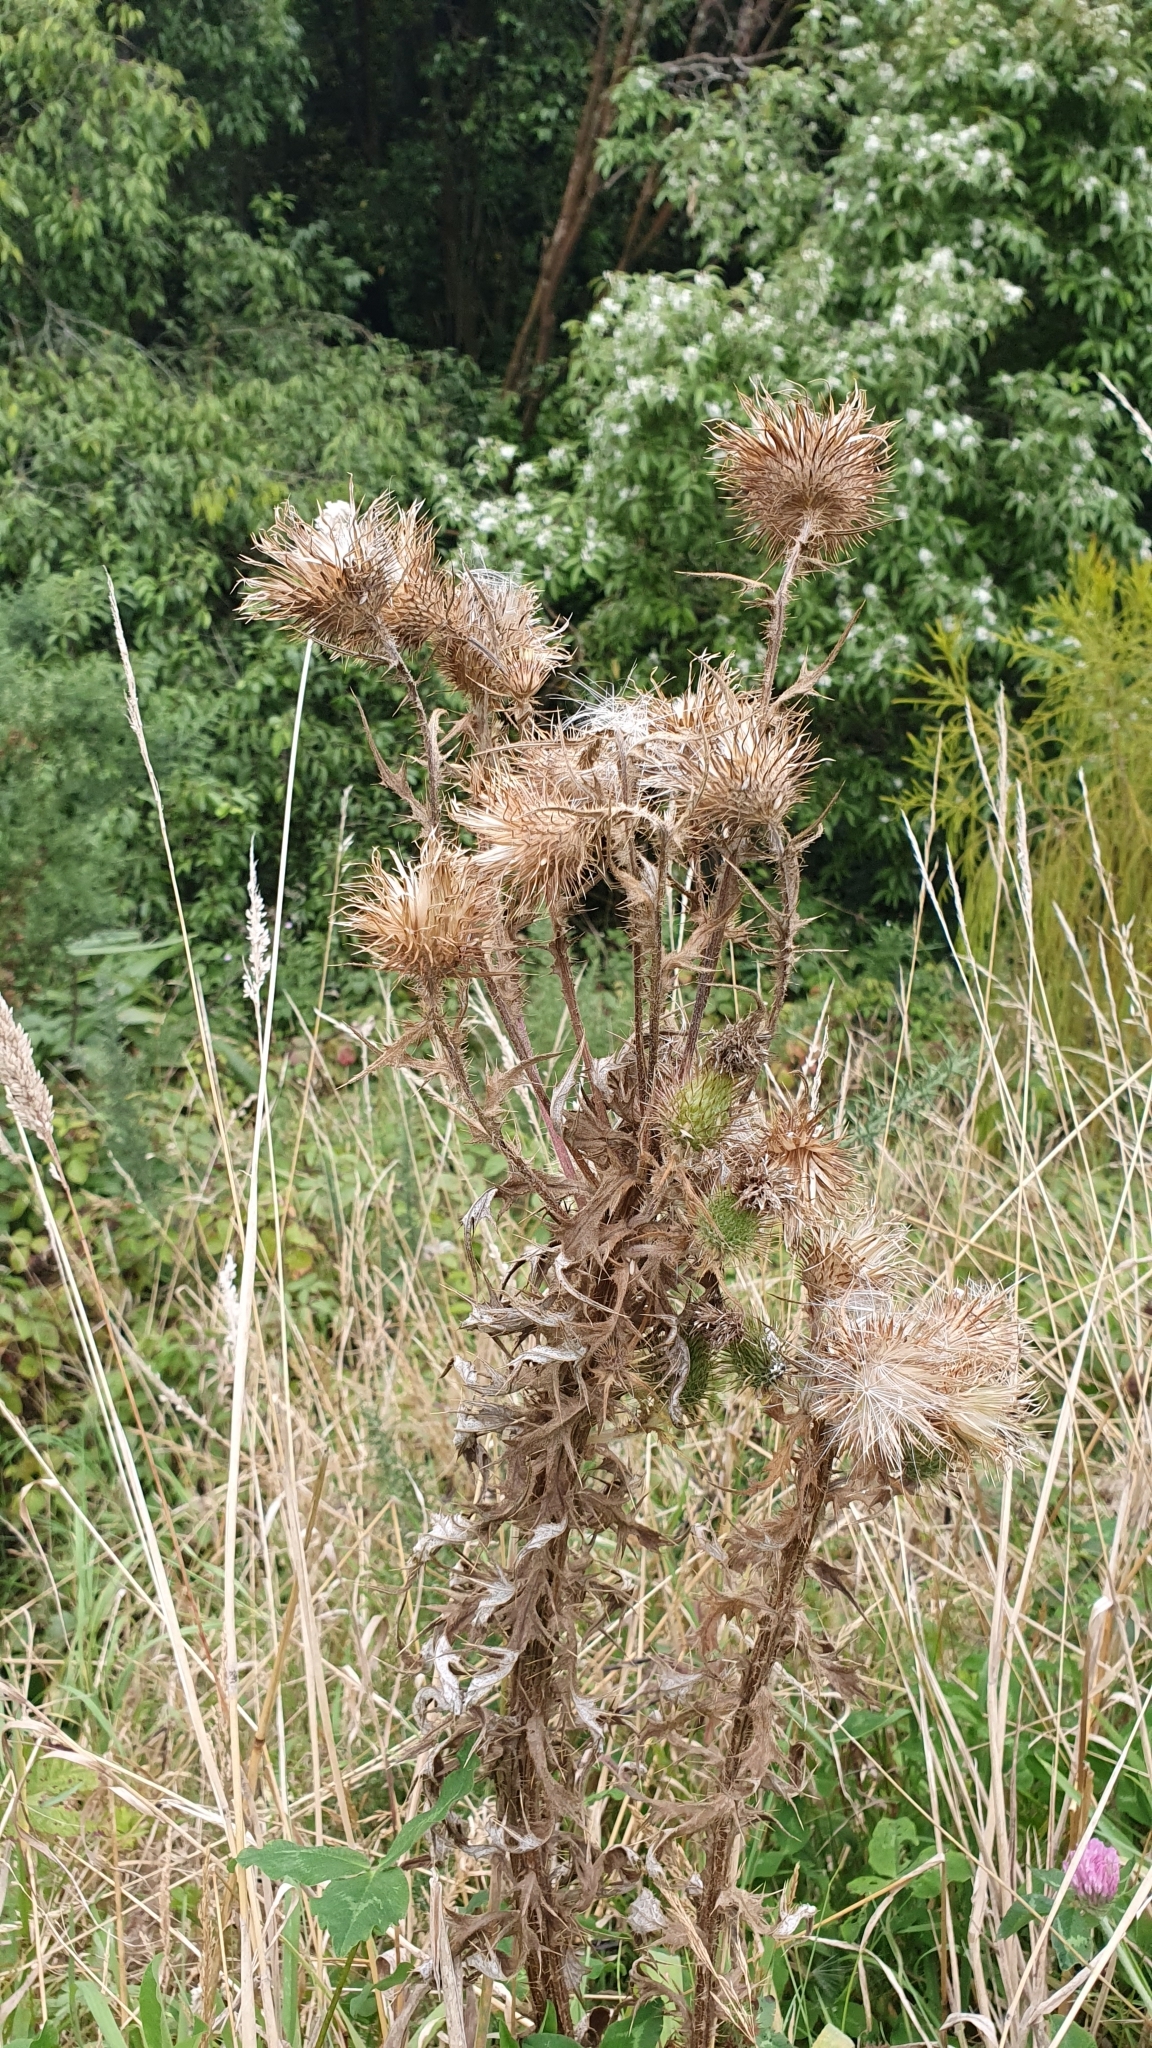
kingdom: Plantae
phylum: Tracheophyta
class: Magnoliopsida
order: Asterales
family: Asteraceae
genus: Cirsium
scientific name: Cirsium vulgare
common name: Bull thistle
